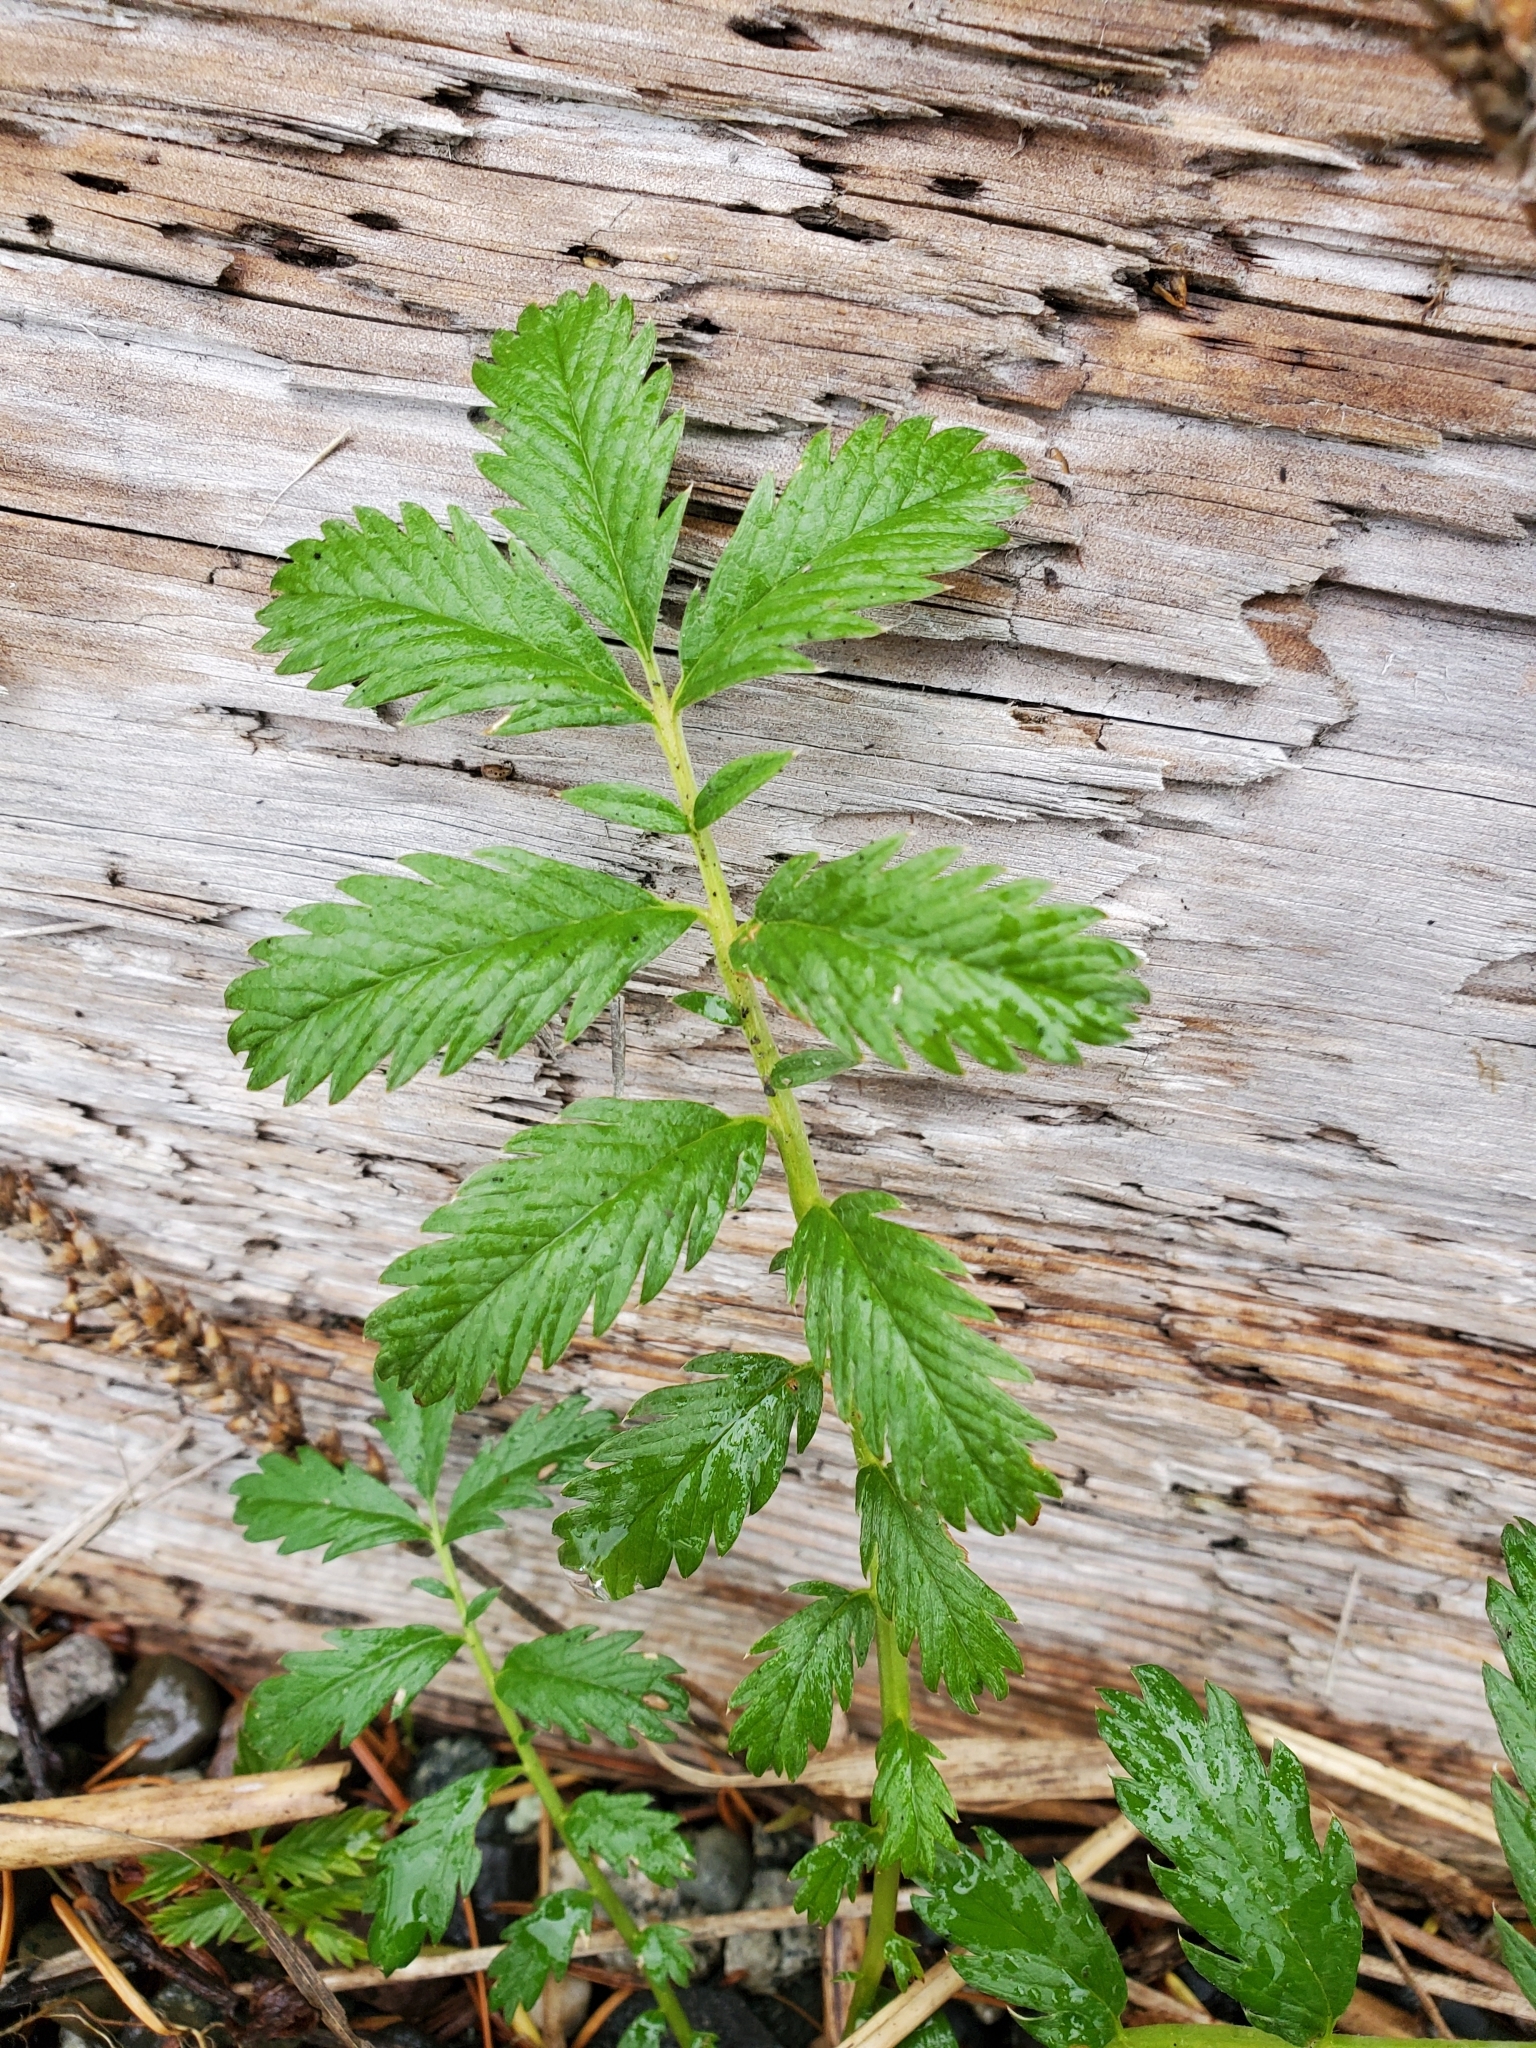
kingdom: Plantae
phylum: Tracheophyta
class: Magnoliopsida
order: Rosales
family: Rosaceae
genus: Argentina
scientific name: Argentina anserina
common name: Common silverweed
